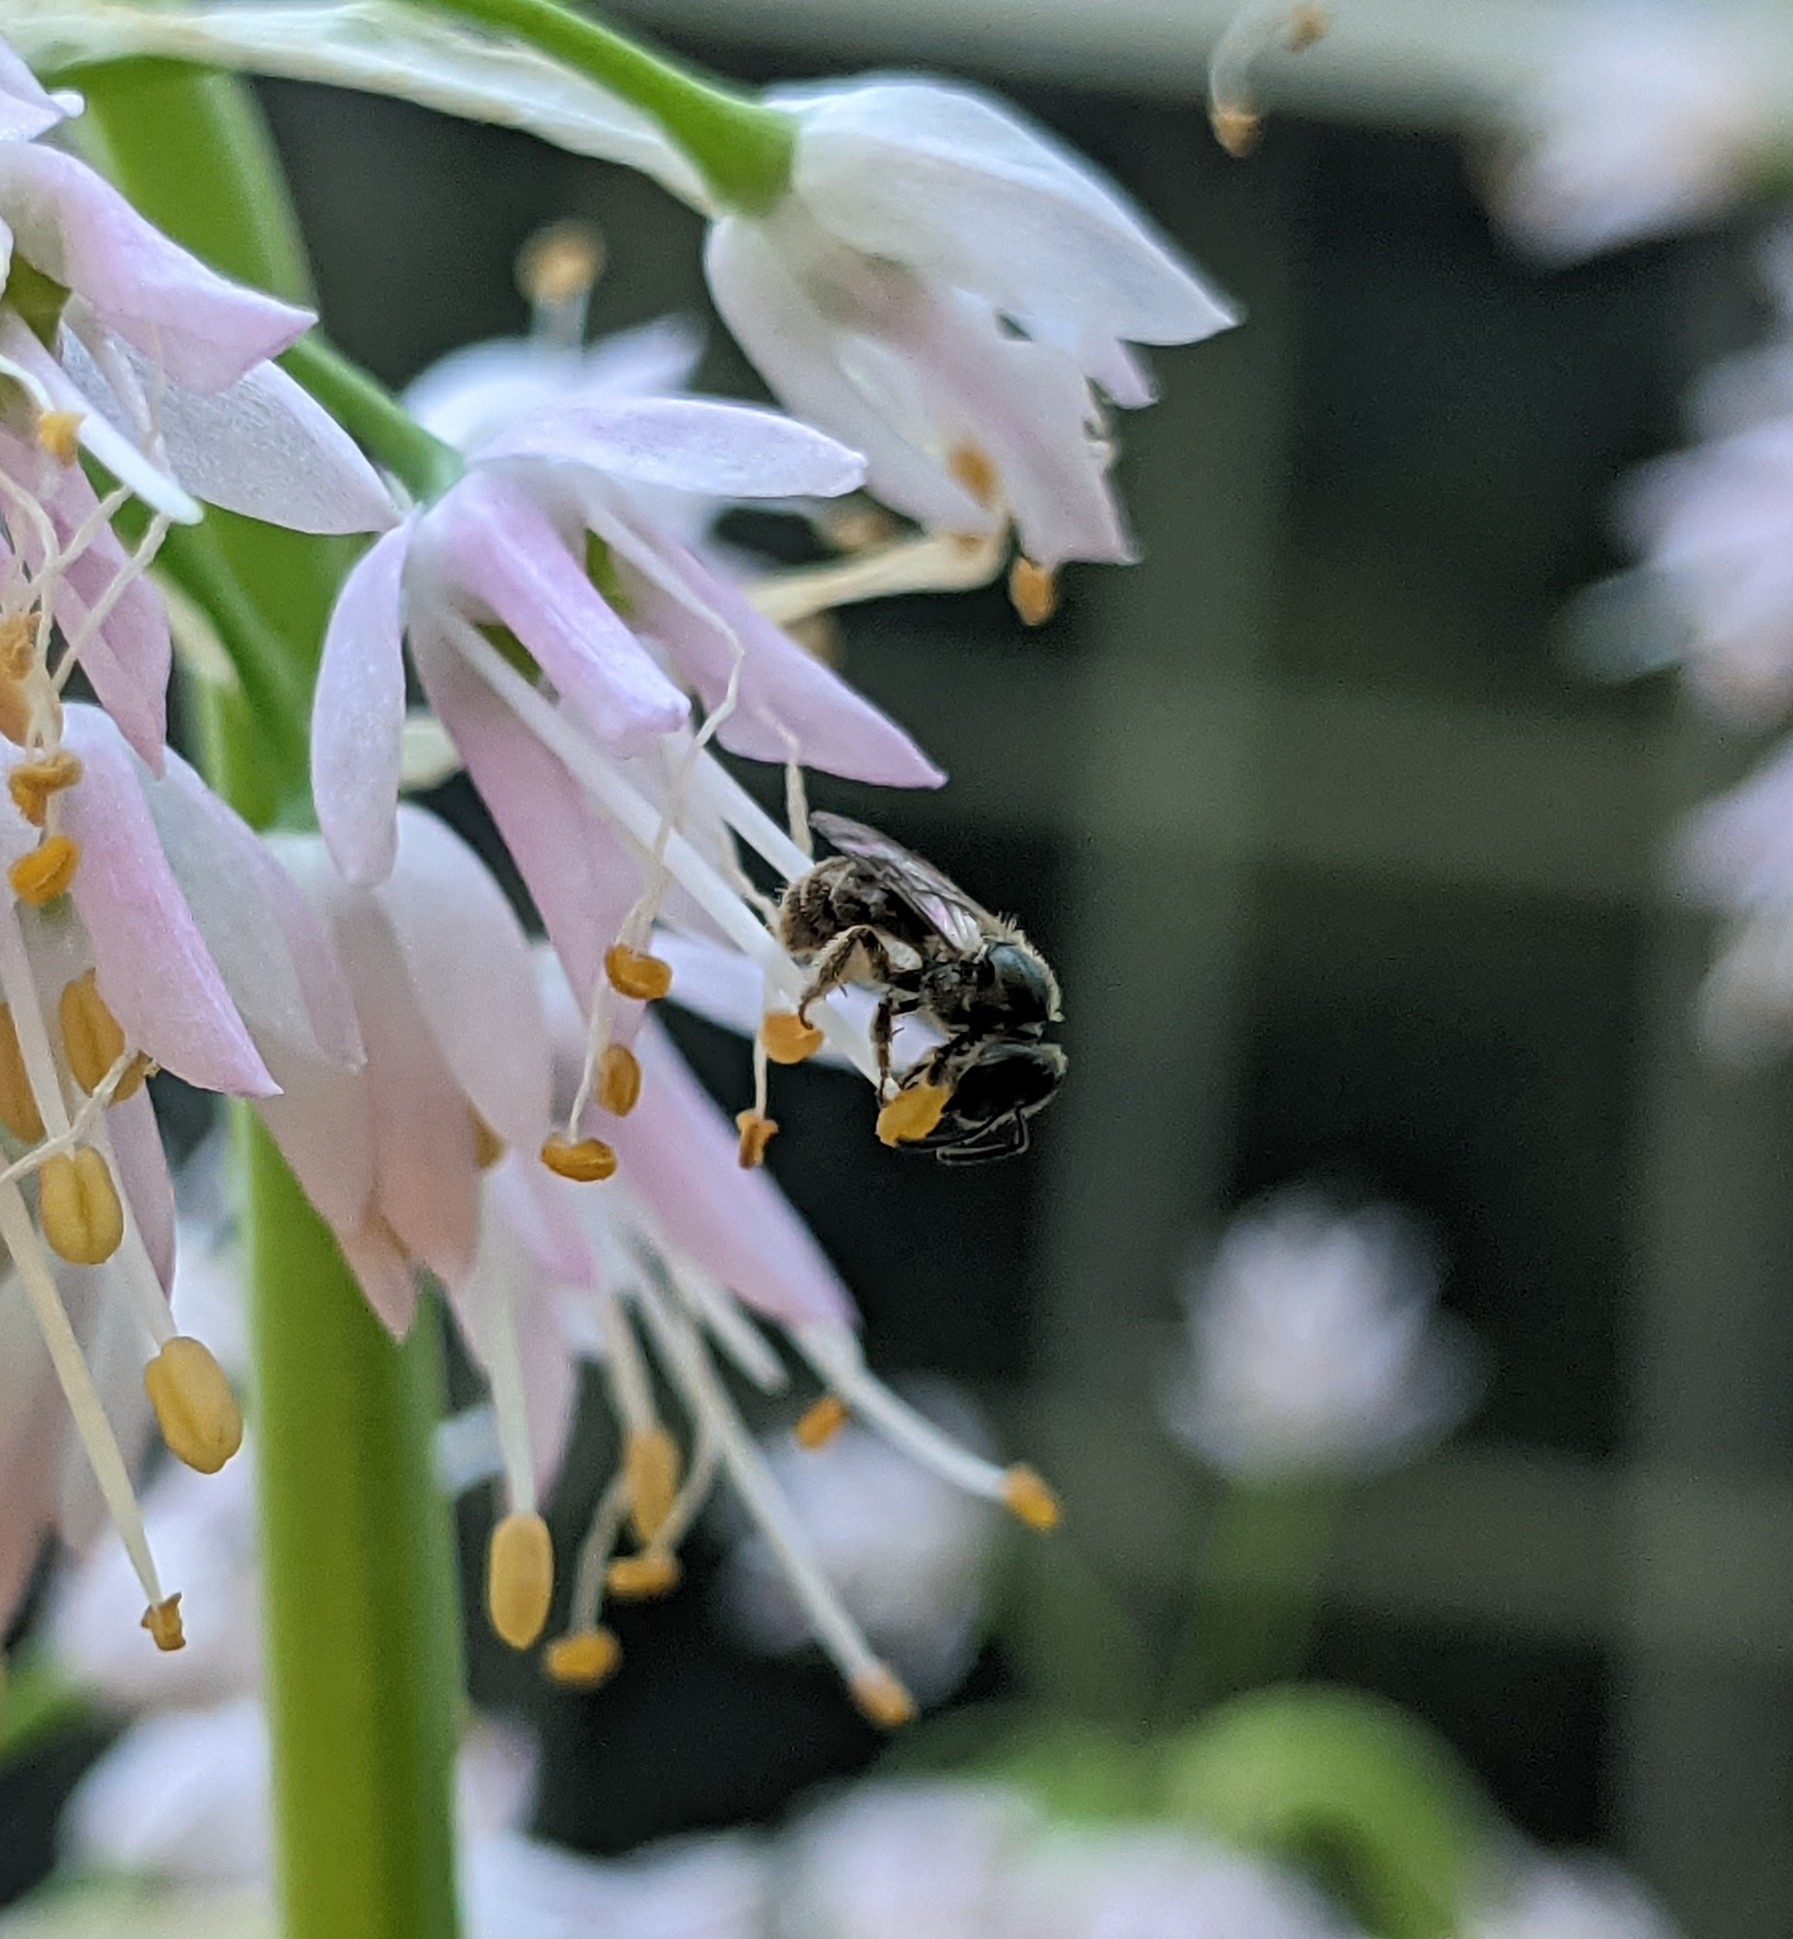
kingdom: Animalia
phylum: Arthropoda
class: Insecta
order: Hymenoptera
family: Halictidae
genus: Dialictus
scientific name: Dialictus
